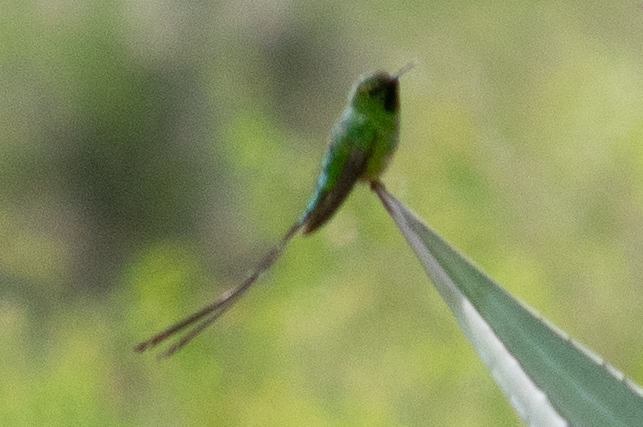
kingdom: Animalia
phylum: Chordata
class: Aves
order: Apodiformes
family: Trochilidae
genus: Lesbia
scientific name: Lesbia victoriae
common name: Black-tailed trainbearer
